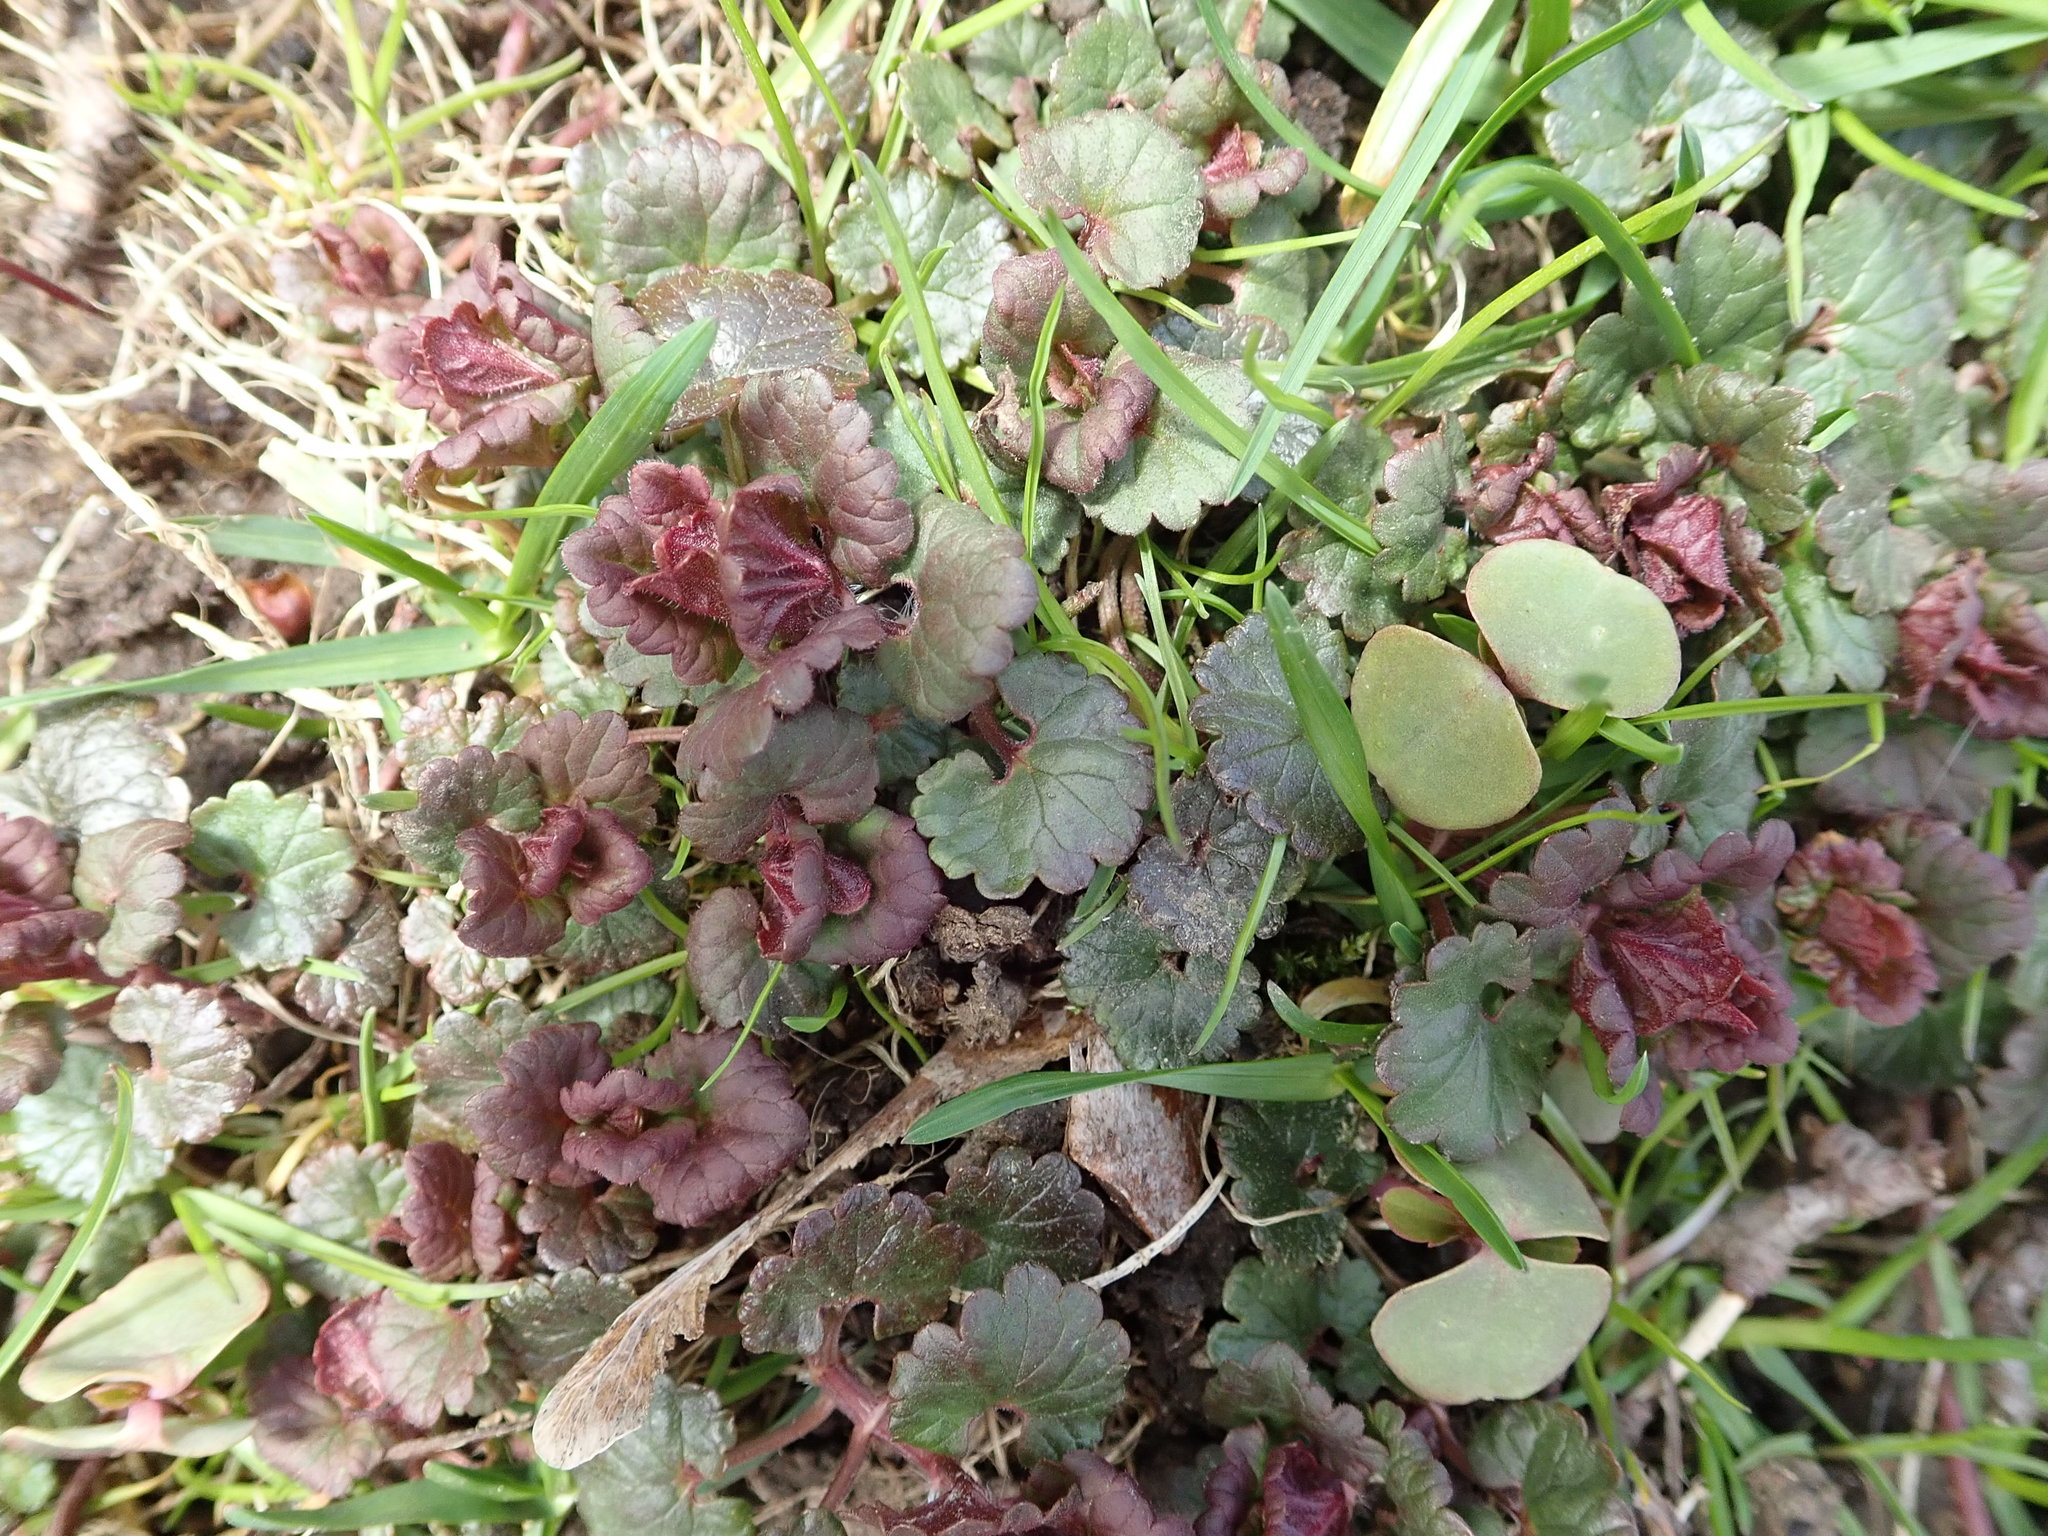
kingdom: Plantae
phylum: Tracheophyta
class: Magnoliopsida
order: Lamiales
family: Lamiaceae
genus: Glechoma
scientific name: Glechoma hederacea
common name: Ground ivy
